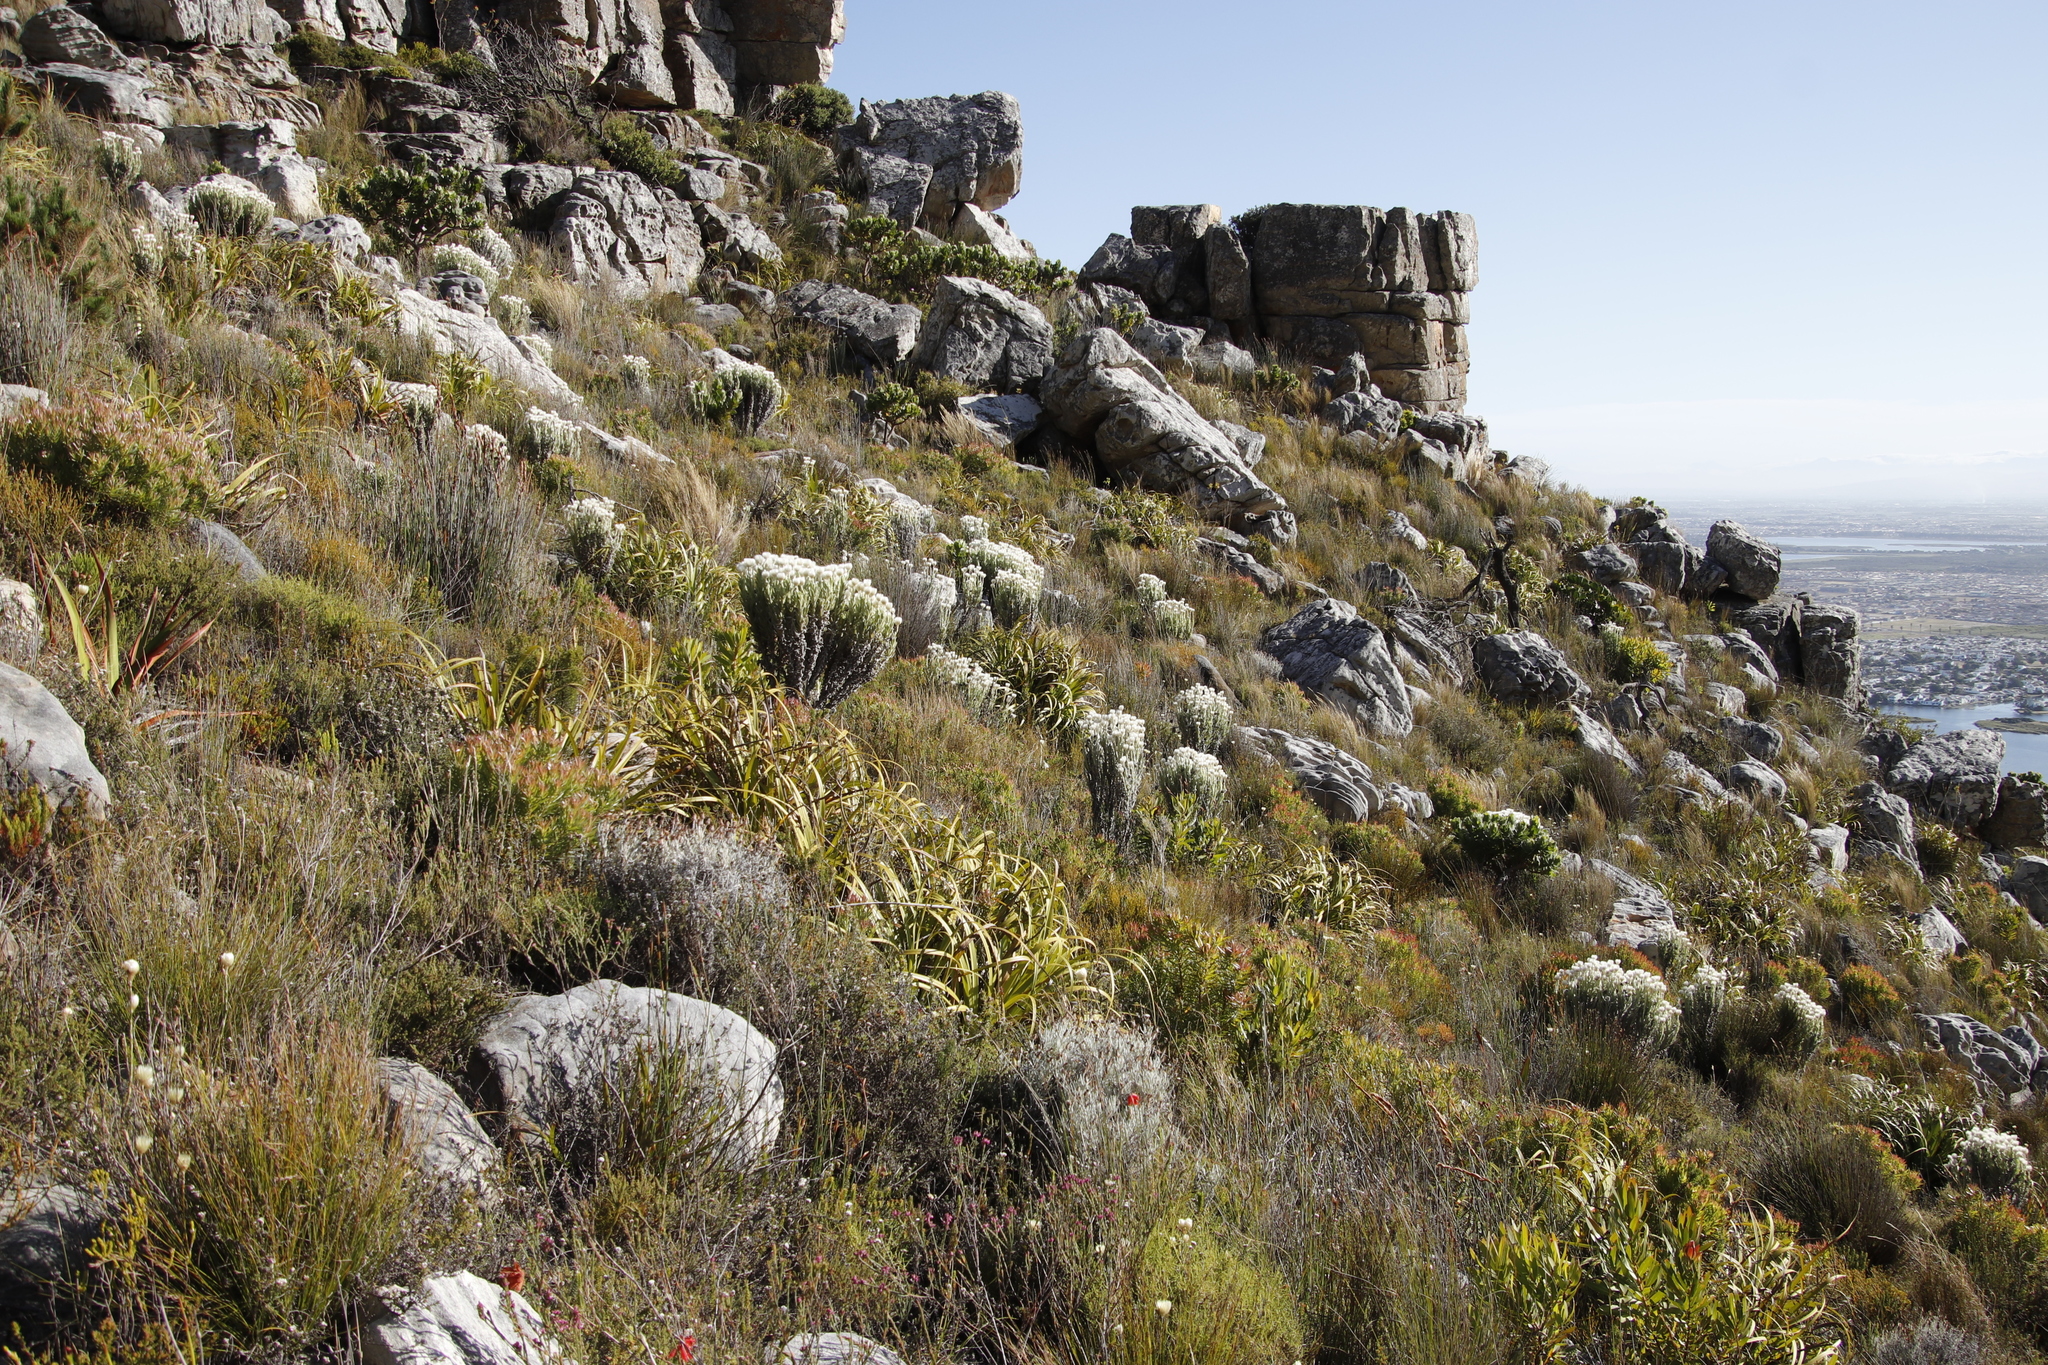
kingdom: Plantae
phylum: Tracheophyta
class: Magnoliopsida
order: Asterales
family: Asteraceae
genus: Syncarpha
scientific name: Syncarpha vestita
